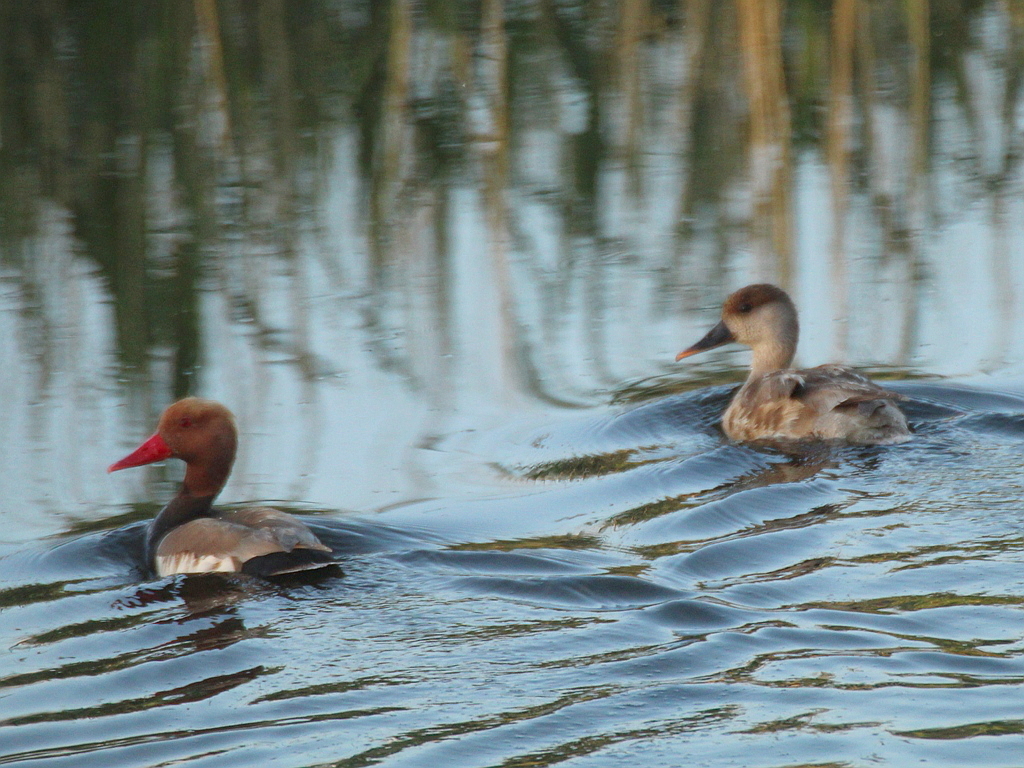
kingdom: Animalia
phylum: Chordata
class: Aves
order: Anseriformes
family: Anatidae
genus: Netta
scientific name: Netta rufina
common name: Red-crested pochard
